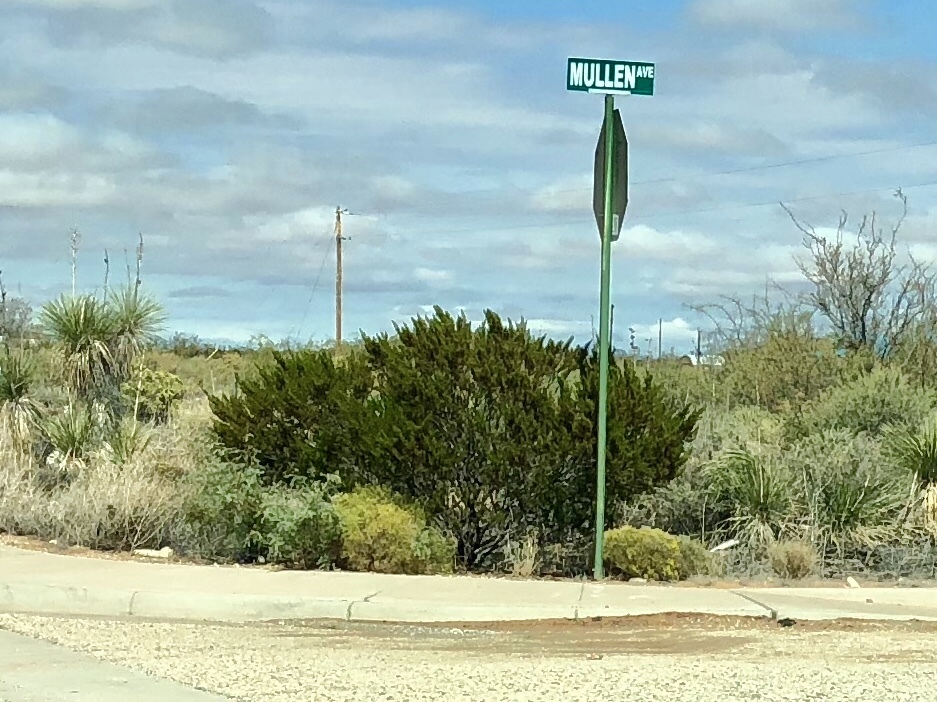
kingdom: Plantae
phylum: Tracheophyta
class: Magnoliopsida
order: Zygophyllales
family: Zygophyllaceae
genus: Larrea
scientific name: Larrea tridentata
